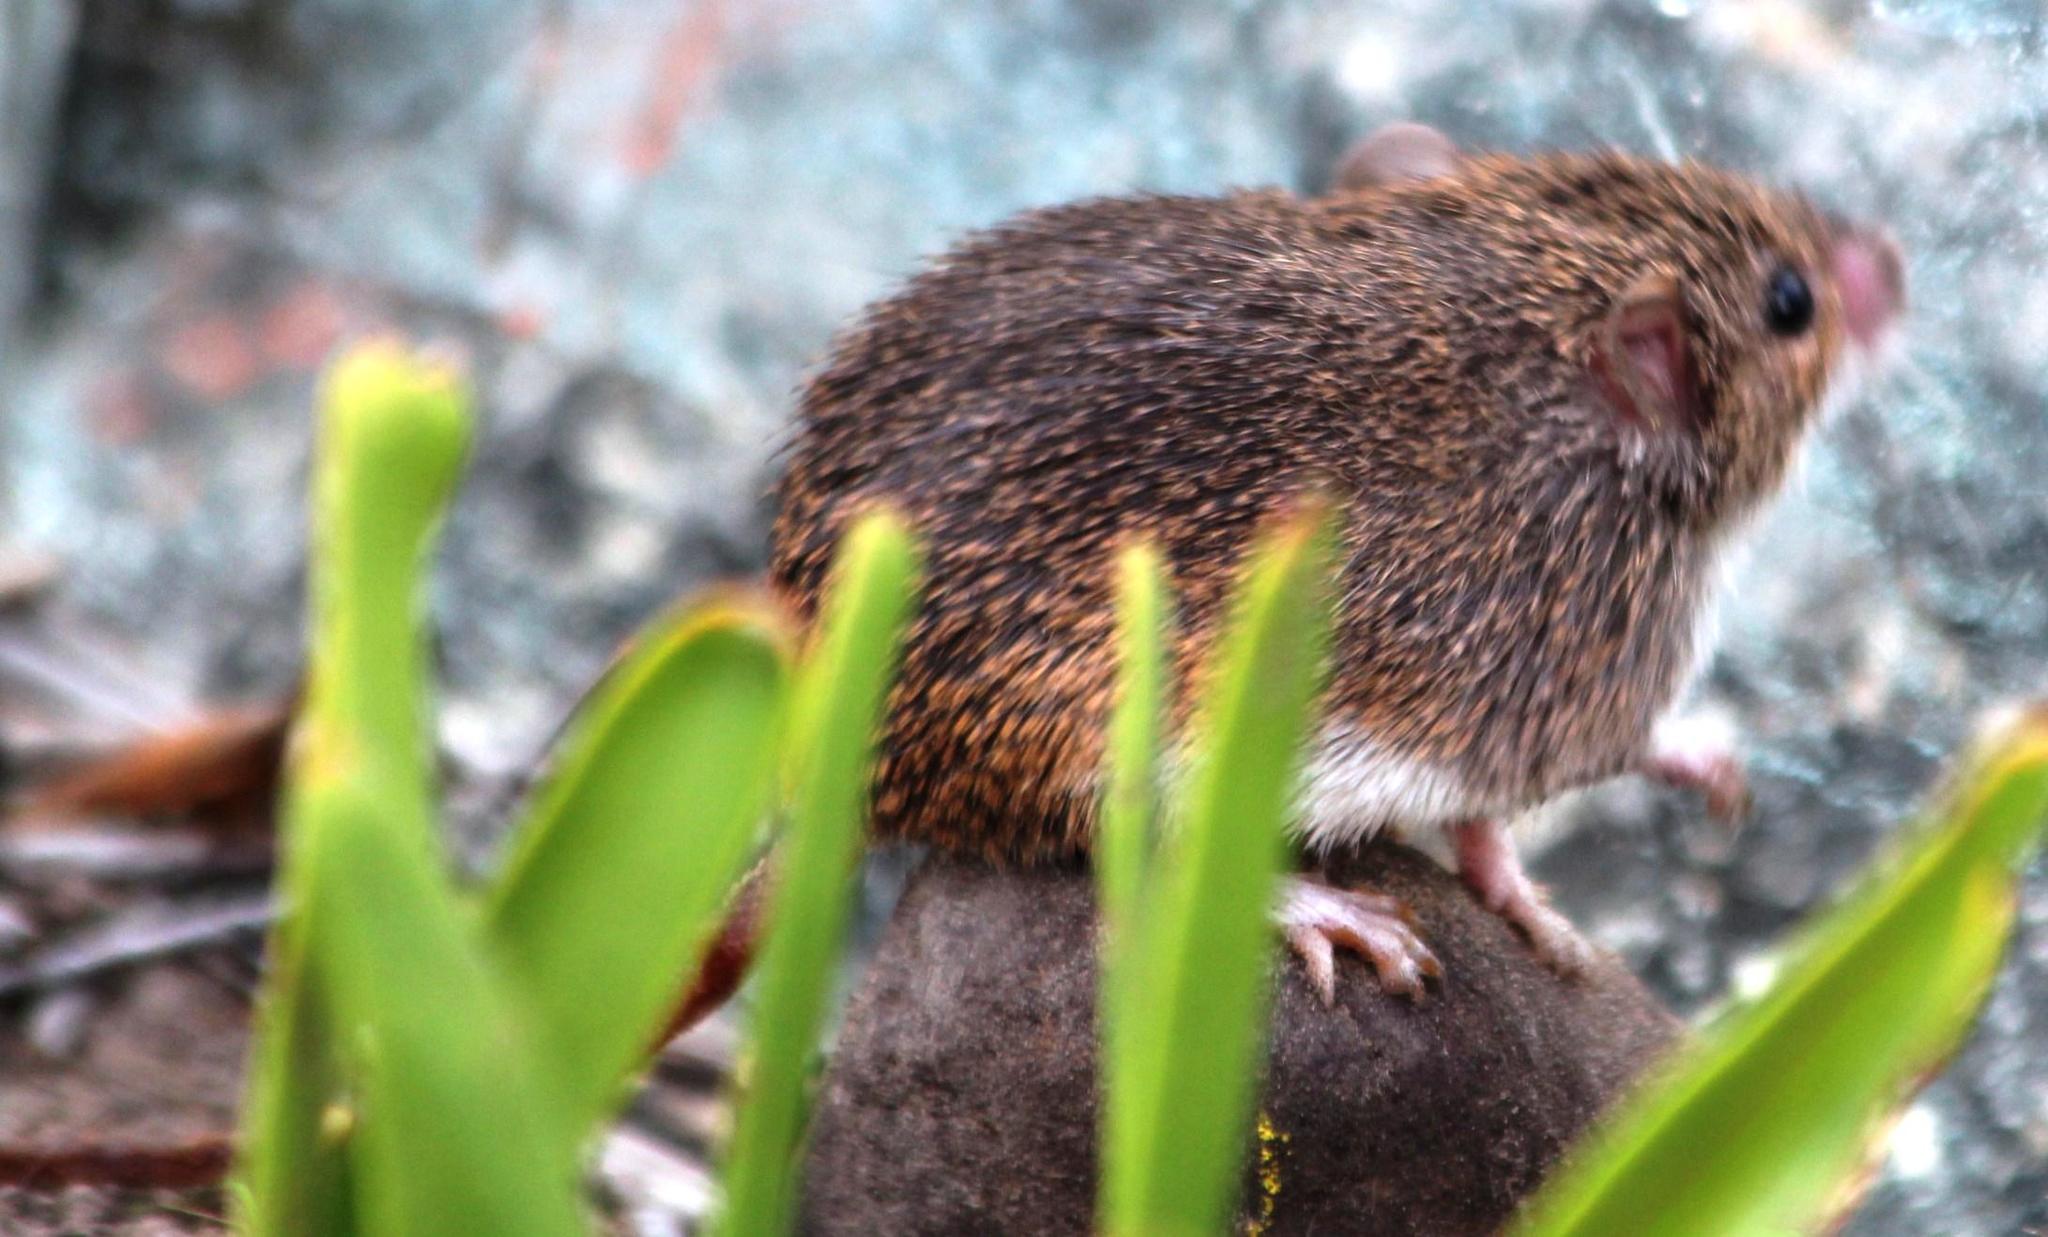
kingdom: Animalia
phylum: Chordata
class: Mammalia
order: Rodentia
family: Muridae
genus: Acomys
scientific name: Acomys subspinosus
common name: Cape spiny mouse
